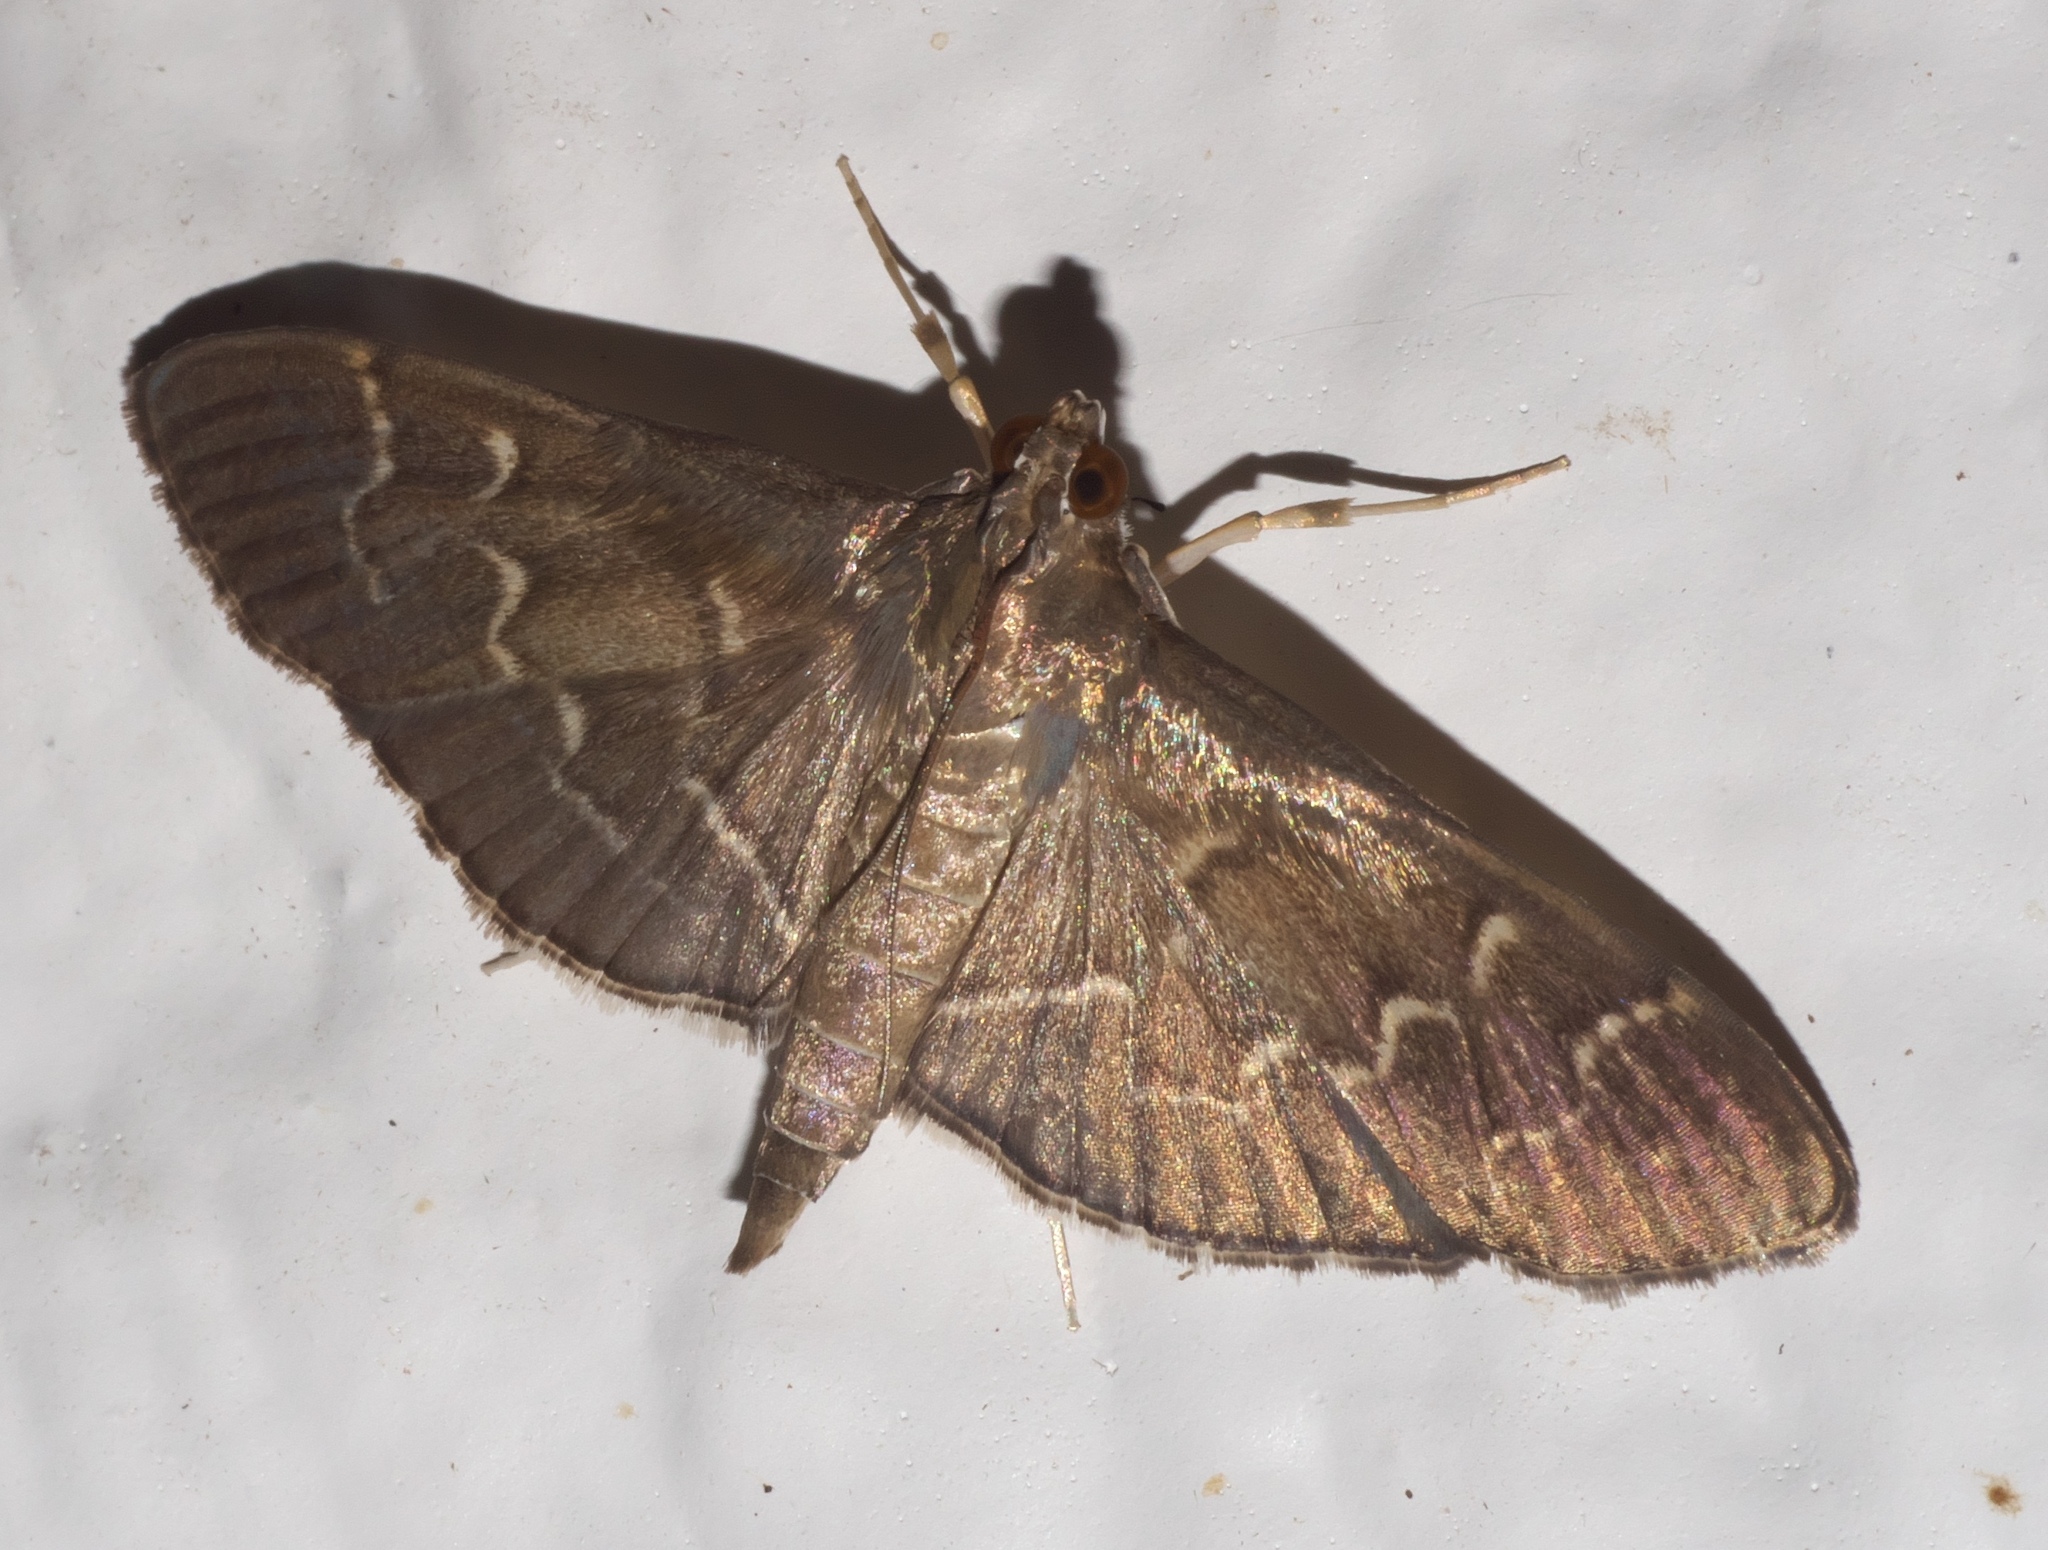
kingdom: Animalia
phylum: Arthropoda
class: Insecta
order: Lepidoptera
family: Crambidae
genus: Pilocrocis
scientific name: Pilocrocis ramentalis
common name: Scraped pilocrocis
